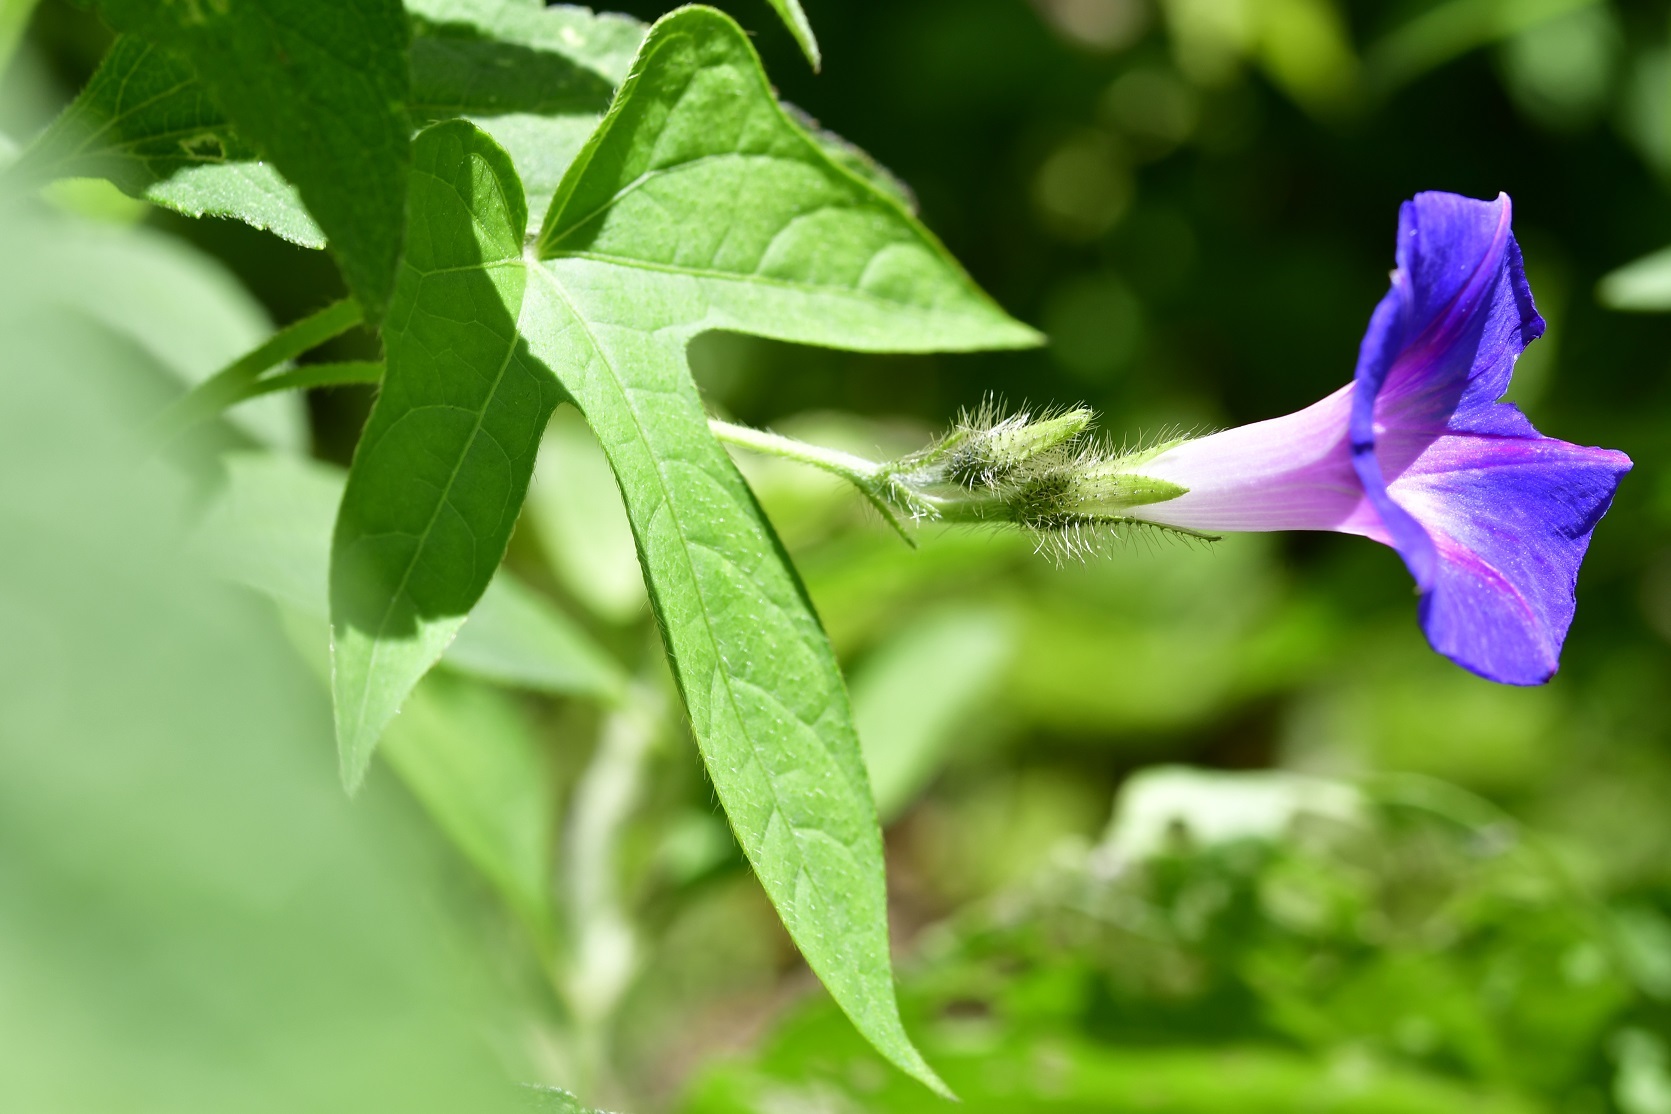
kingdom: Plantae
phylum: Tracheophyta
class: Magnoliopsida
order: Solanales
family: Convolvulaceae
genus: Ipomoea
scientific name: Ipomoea purpurea
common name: Common morning-glory
